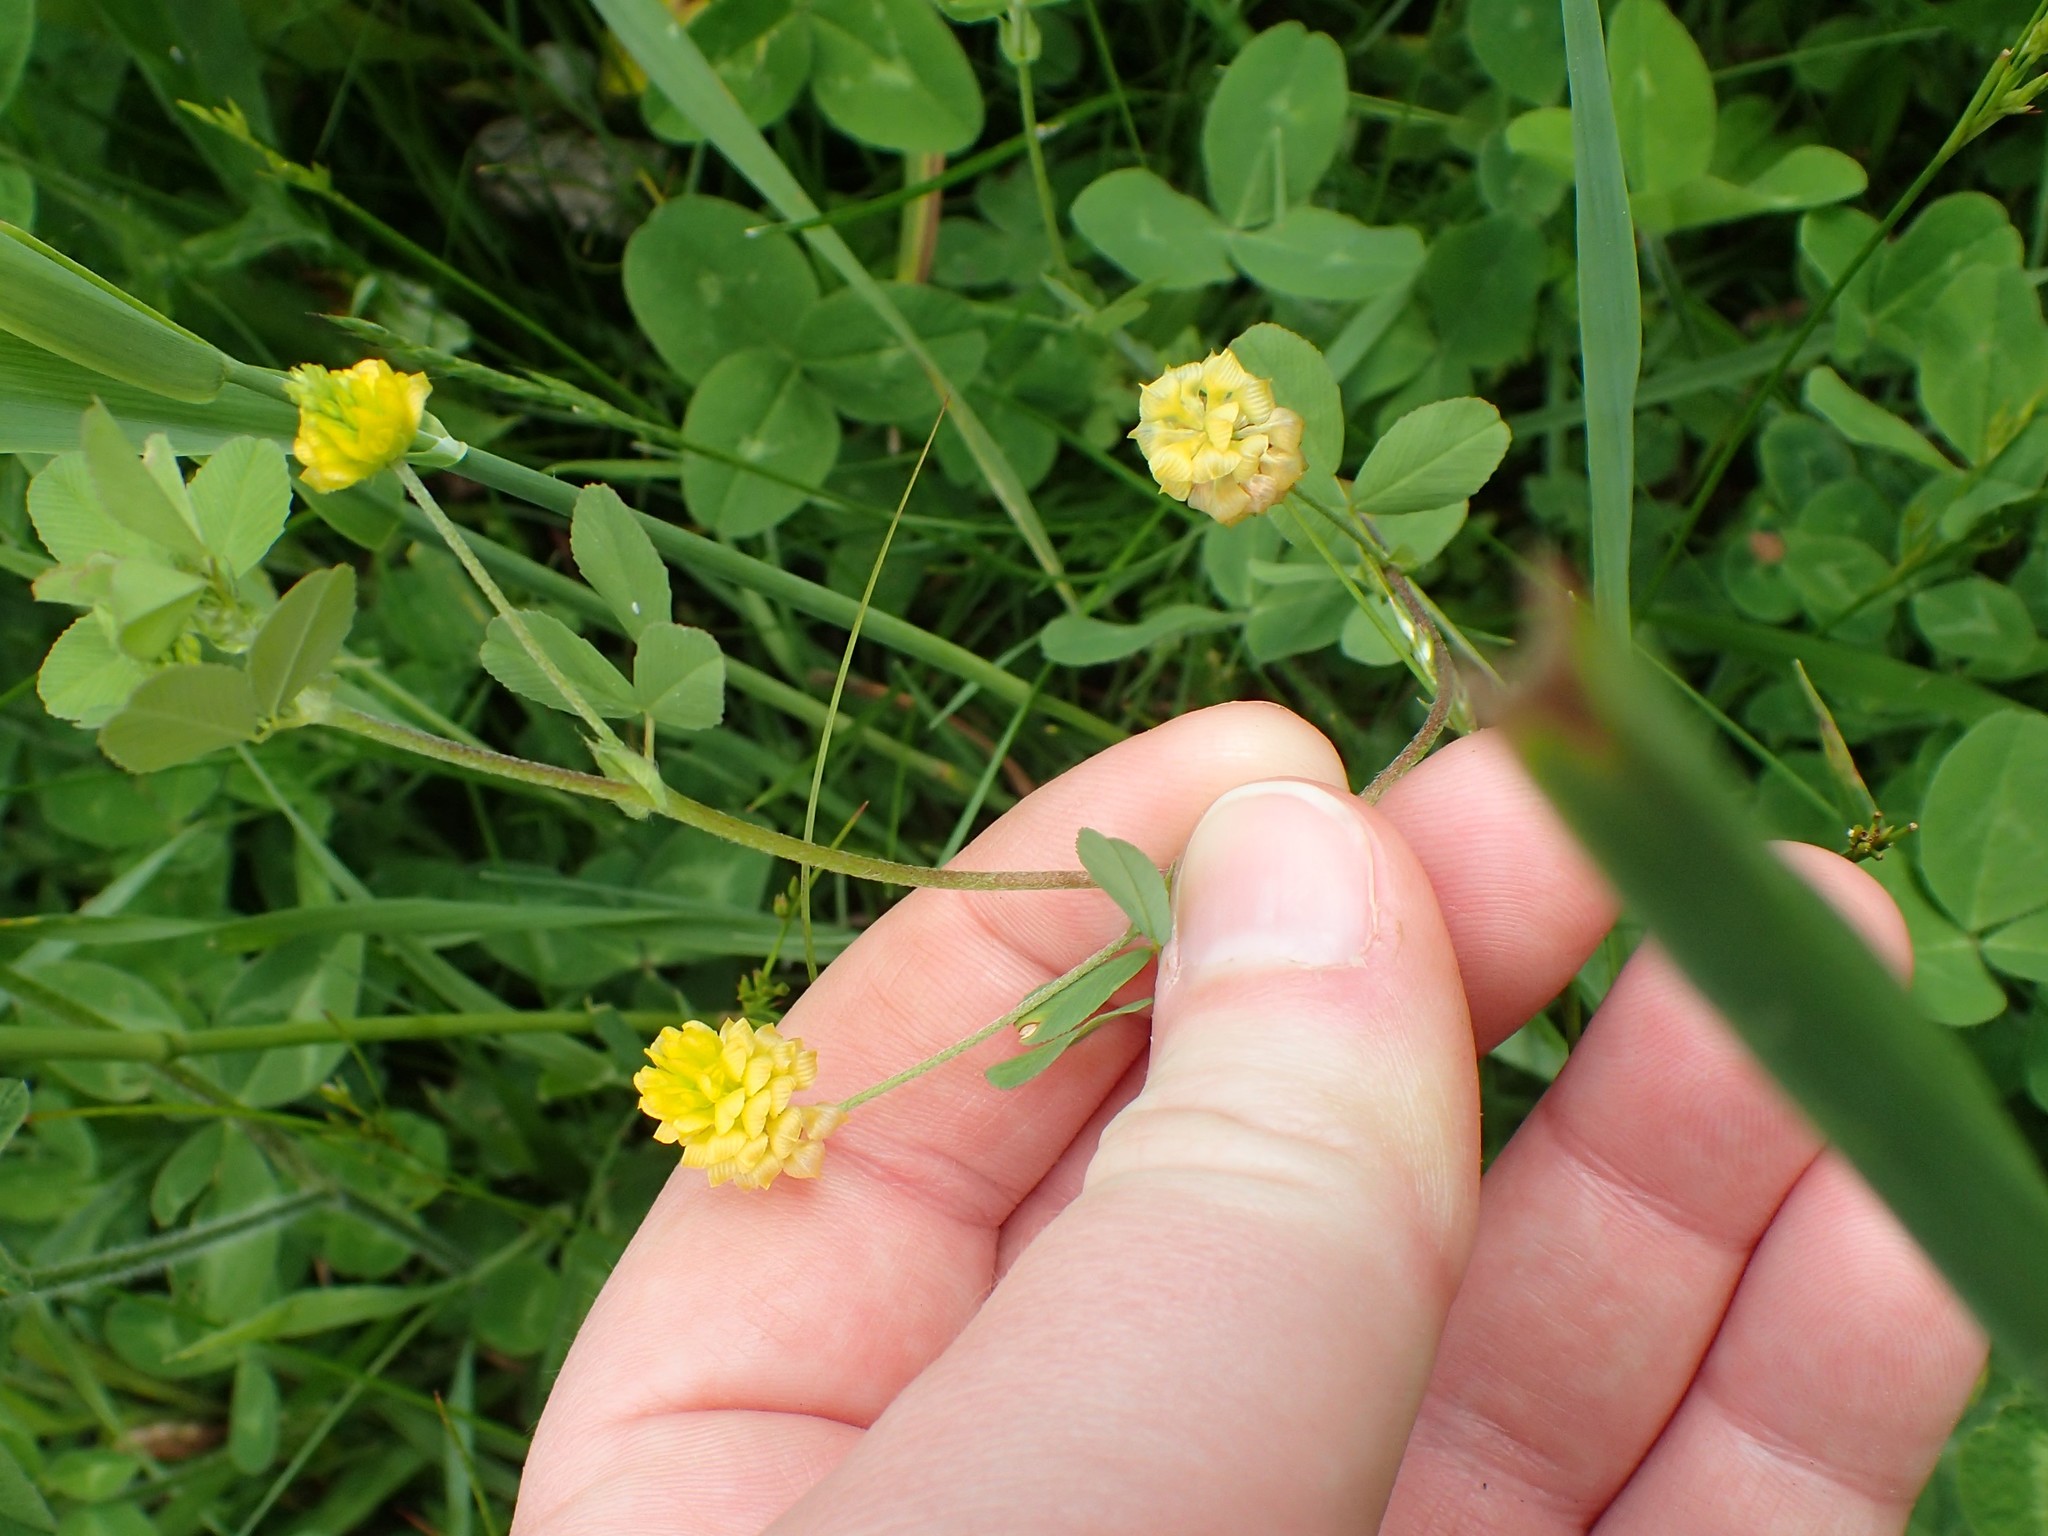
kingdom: Plantae
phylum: Tracheophyta
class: Magnoliopsida
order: Fabales
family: Fabaceae
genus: Trifolium
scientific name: Trifolium campestre
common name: Field clover
